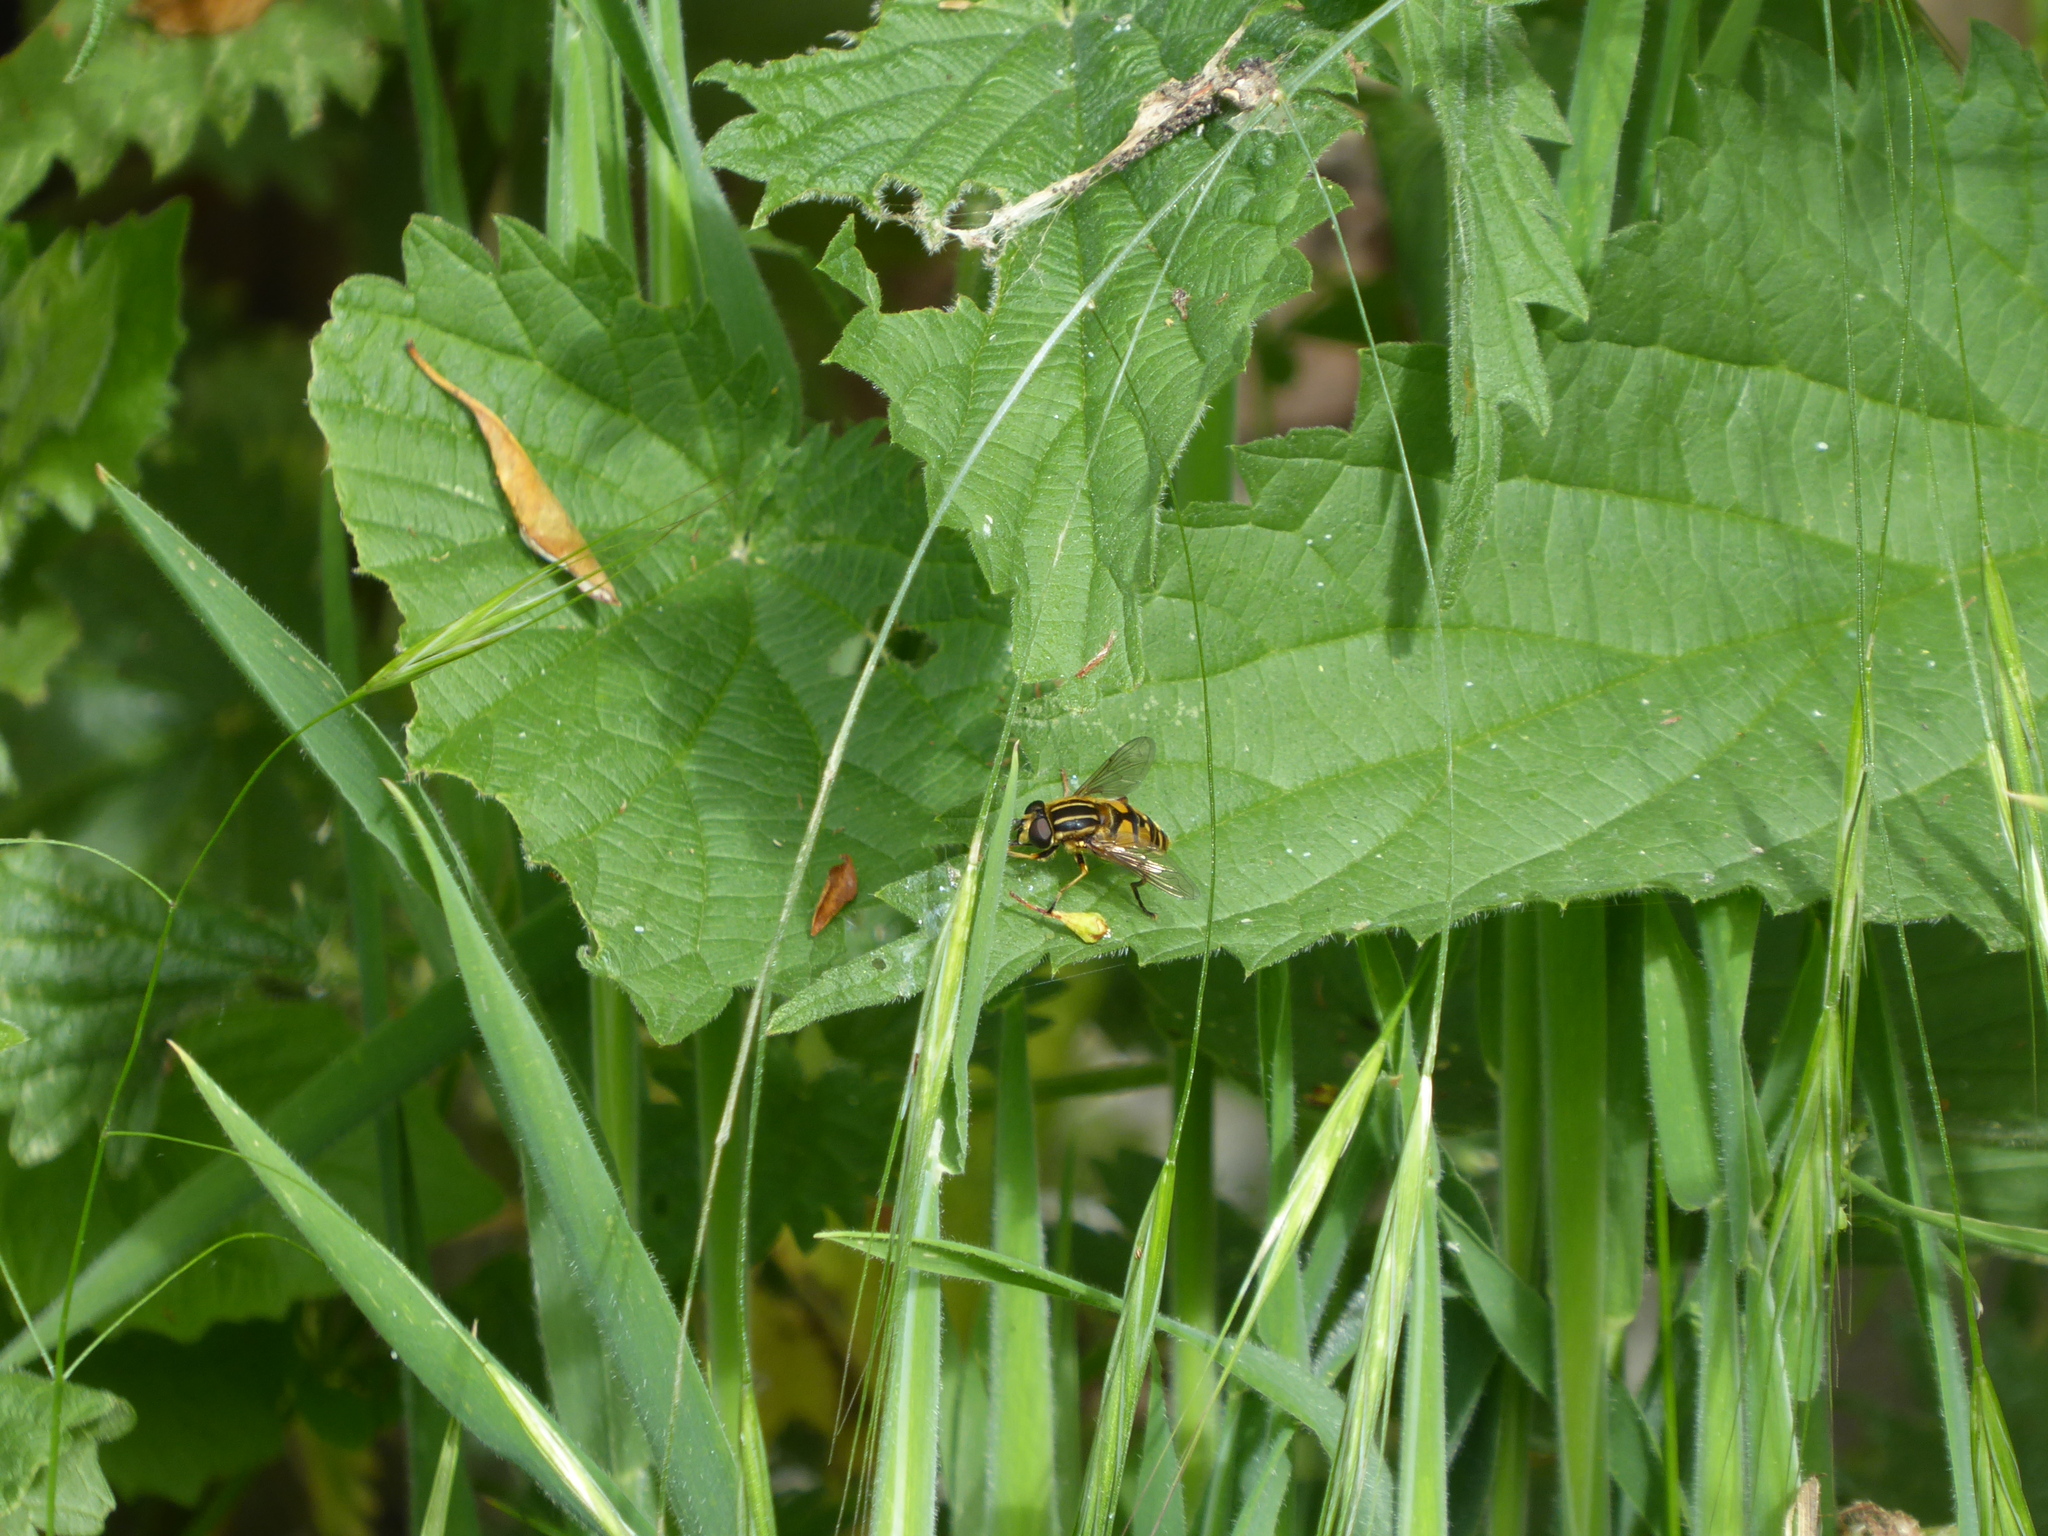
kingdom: Animalia
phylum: Arthropoda
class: Insecta
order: Diptera
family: Syrphidae
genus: Helophilus
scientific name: Helophilus pendulus
